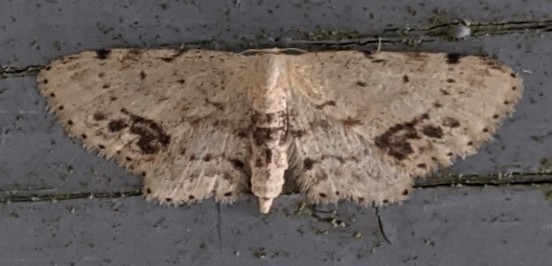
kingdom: Animalia
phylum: Arthropoda
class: Insecta
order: Lepidoptera
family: Geometridae
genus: Idaea
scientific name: Idaea dimidiata
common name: Single-dotted wave
